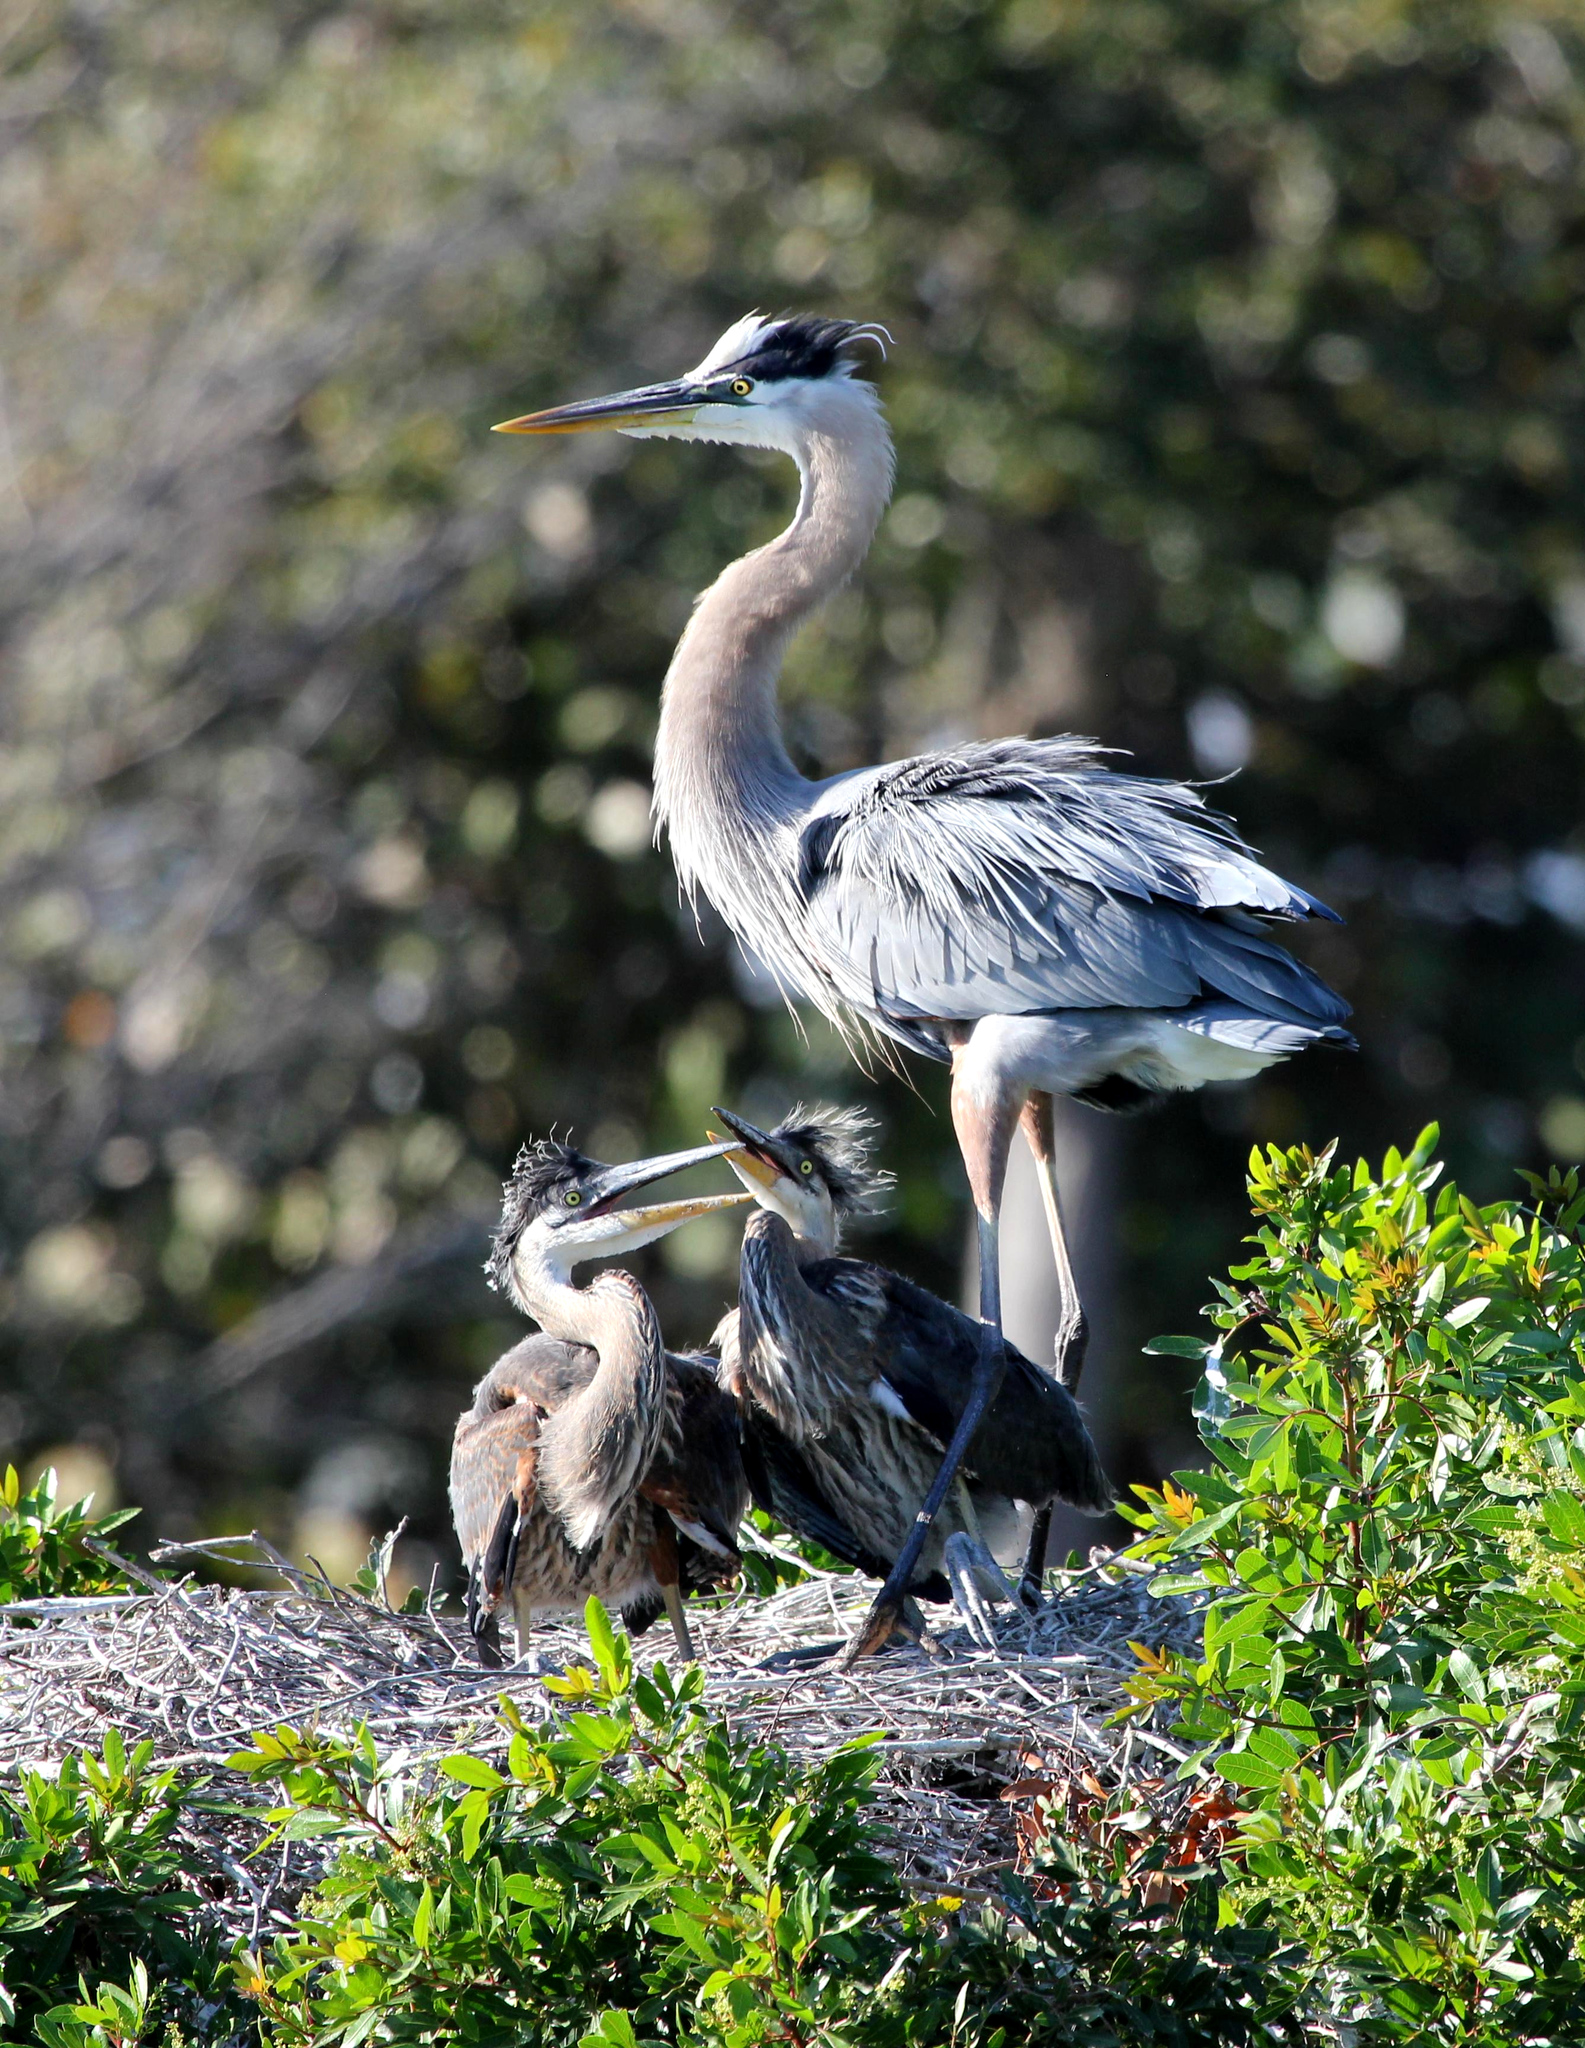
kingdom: Animalia
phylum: Chordata
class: Aves
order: Pelecaniformes
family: Ardeidae
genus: Ardea
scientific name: Ardea herodias
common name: Great blue heron
